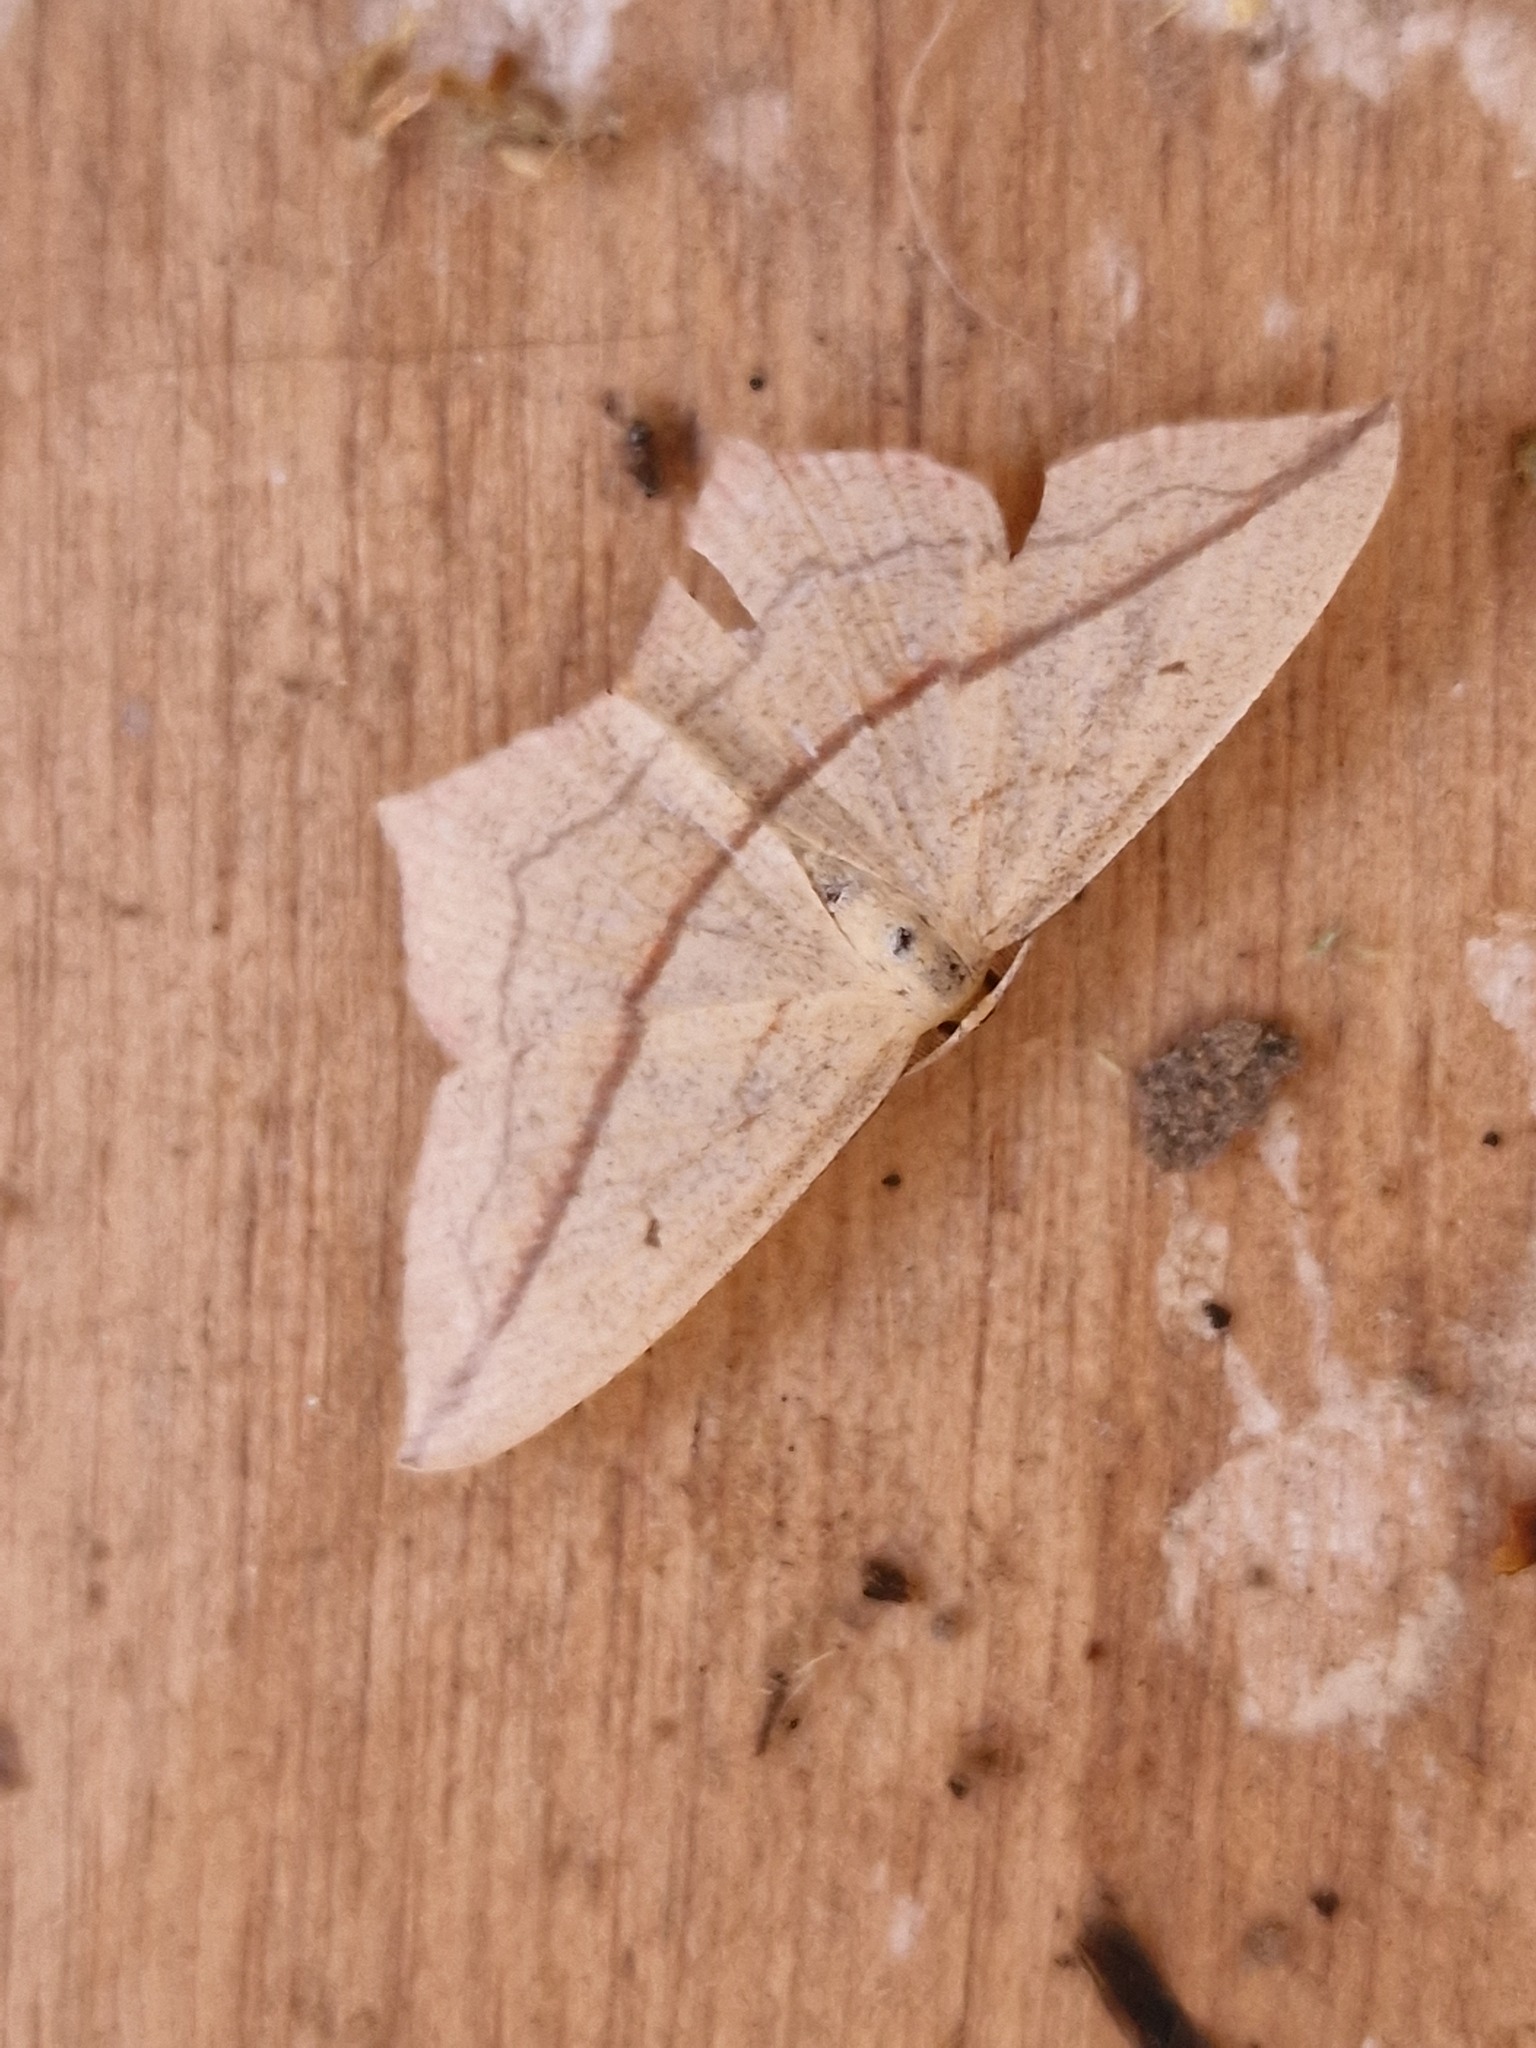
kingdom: Animalia
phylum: Arthropoda
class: Insecta
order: Lepidoptera
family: Geometridae
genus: Timandra
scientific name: Timandra comae
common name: Blood-vein
